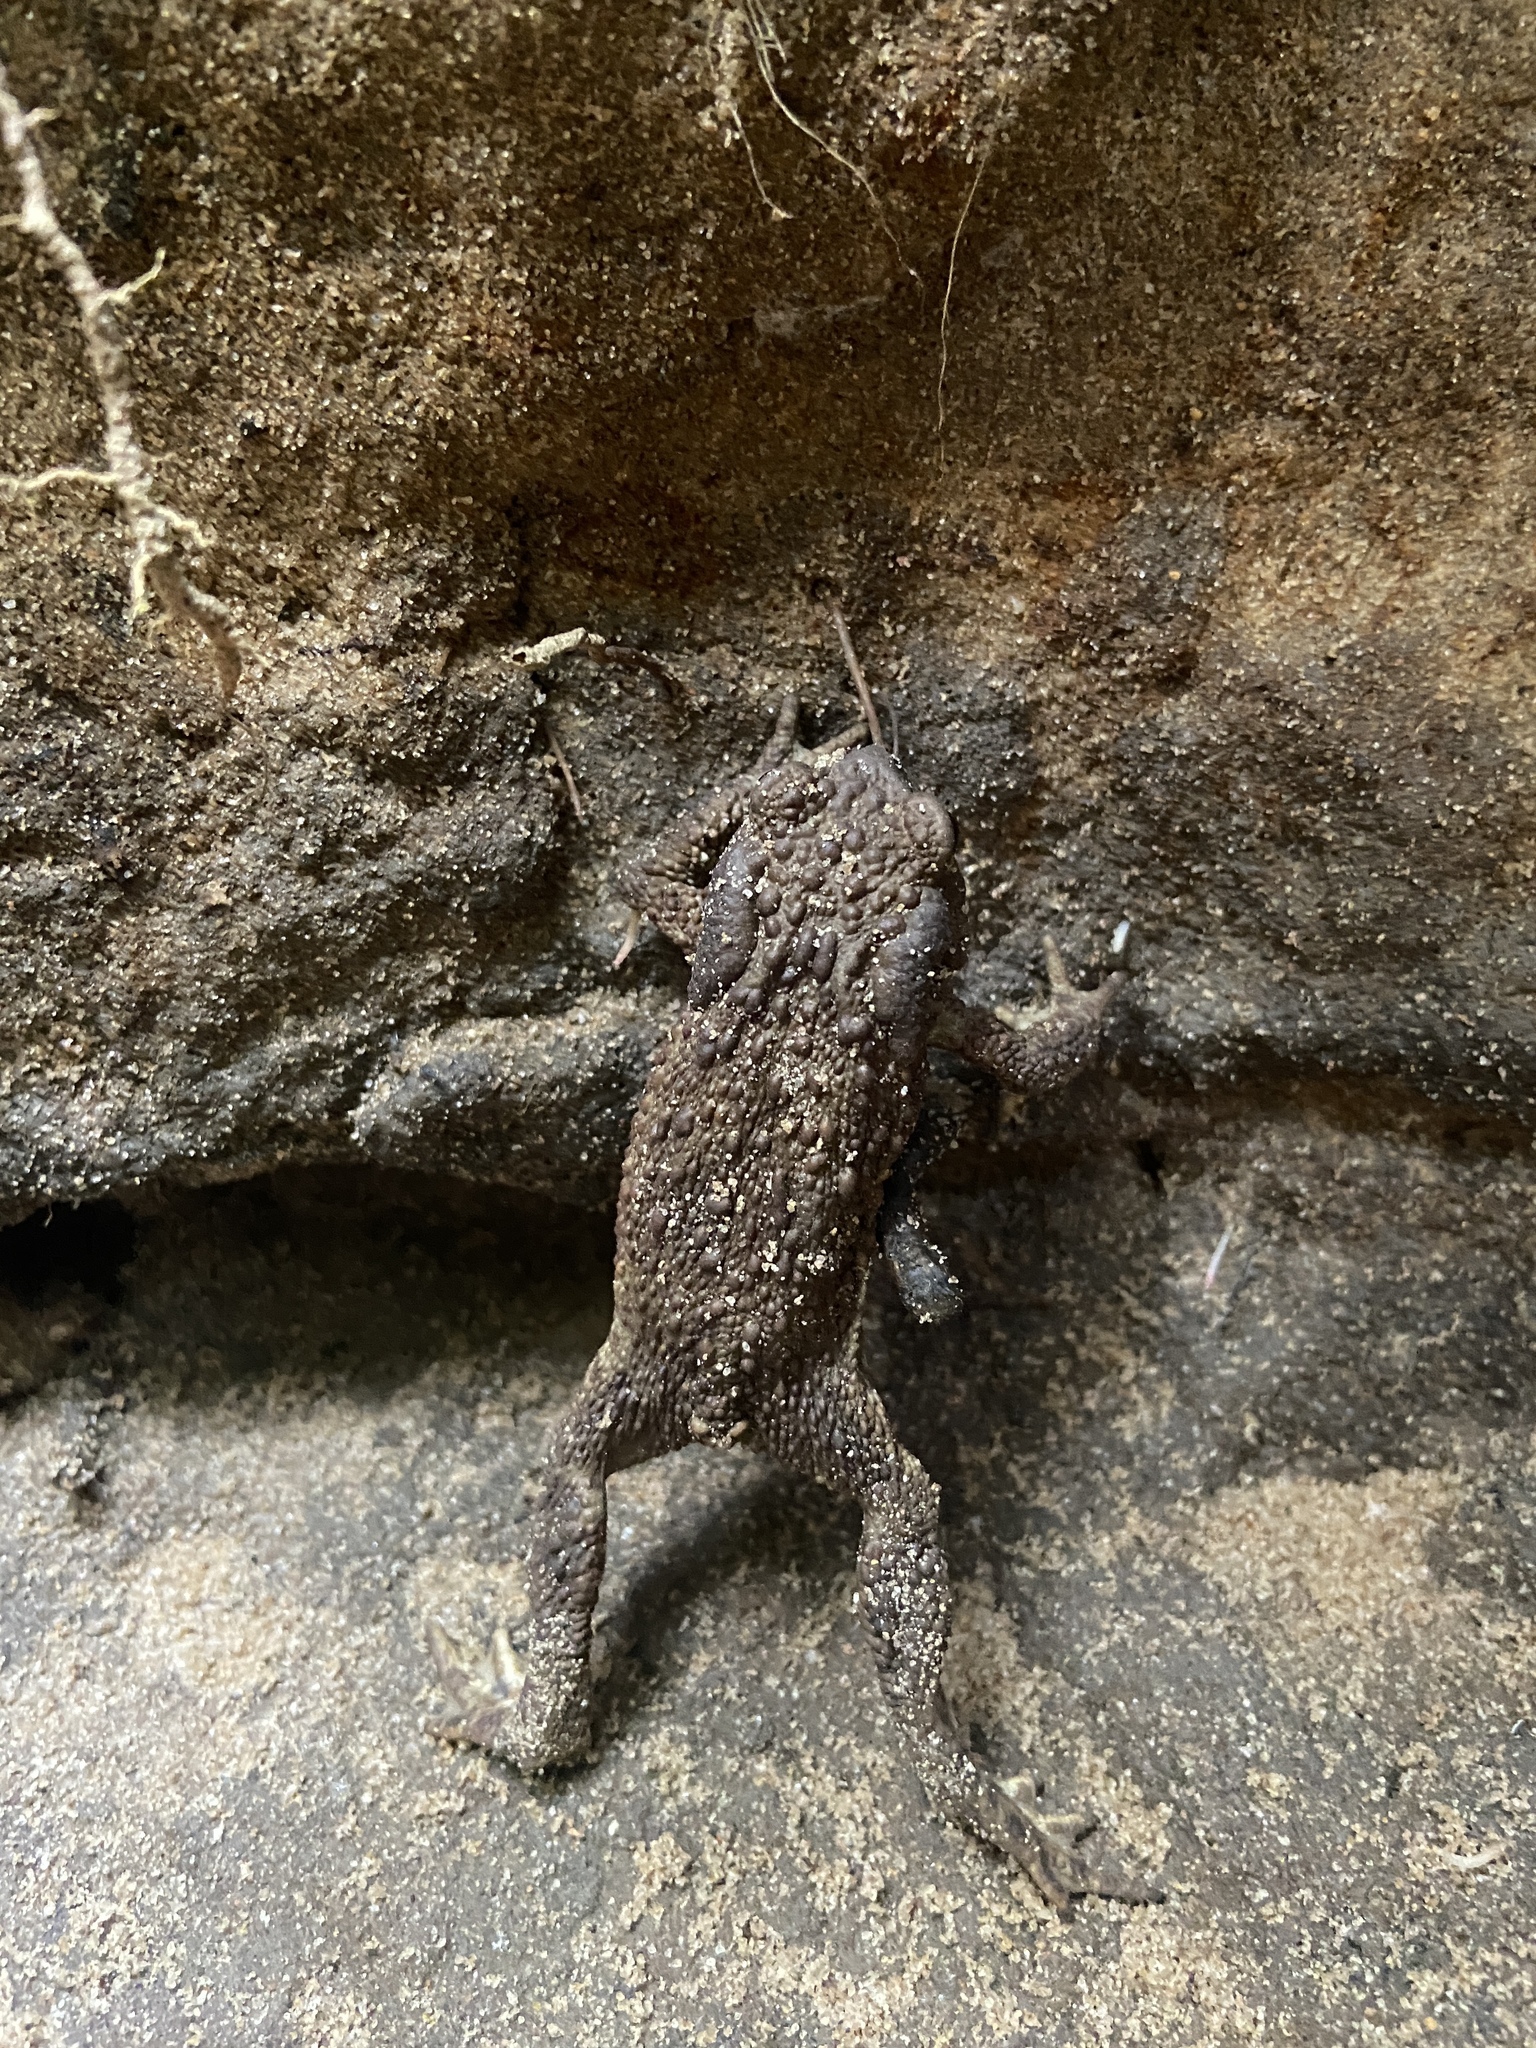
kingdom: Animalia
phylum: Chordata
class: Amphibia
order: Anura
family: Bufonidae
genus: Bufo
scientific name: Bufo bufo
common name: Common toad
